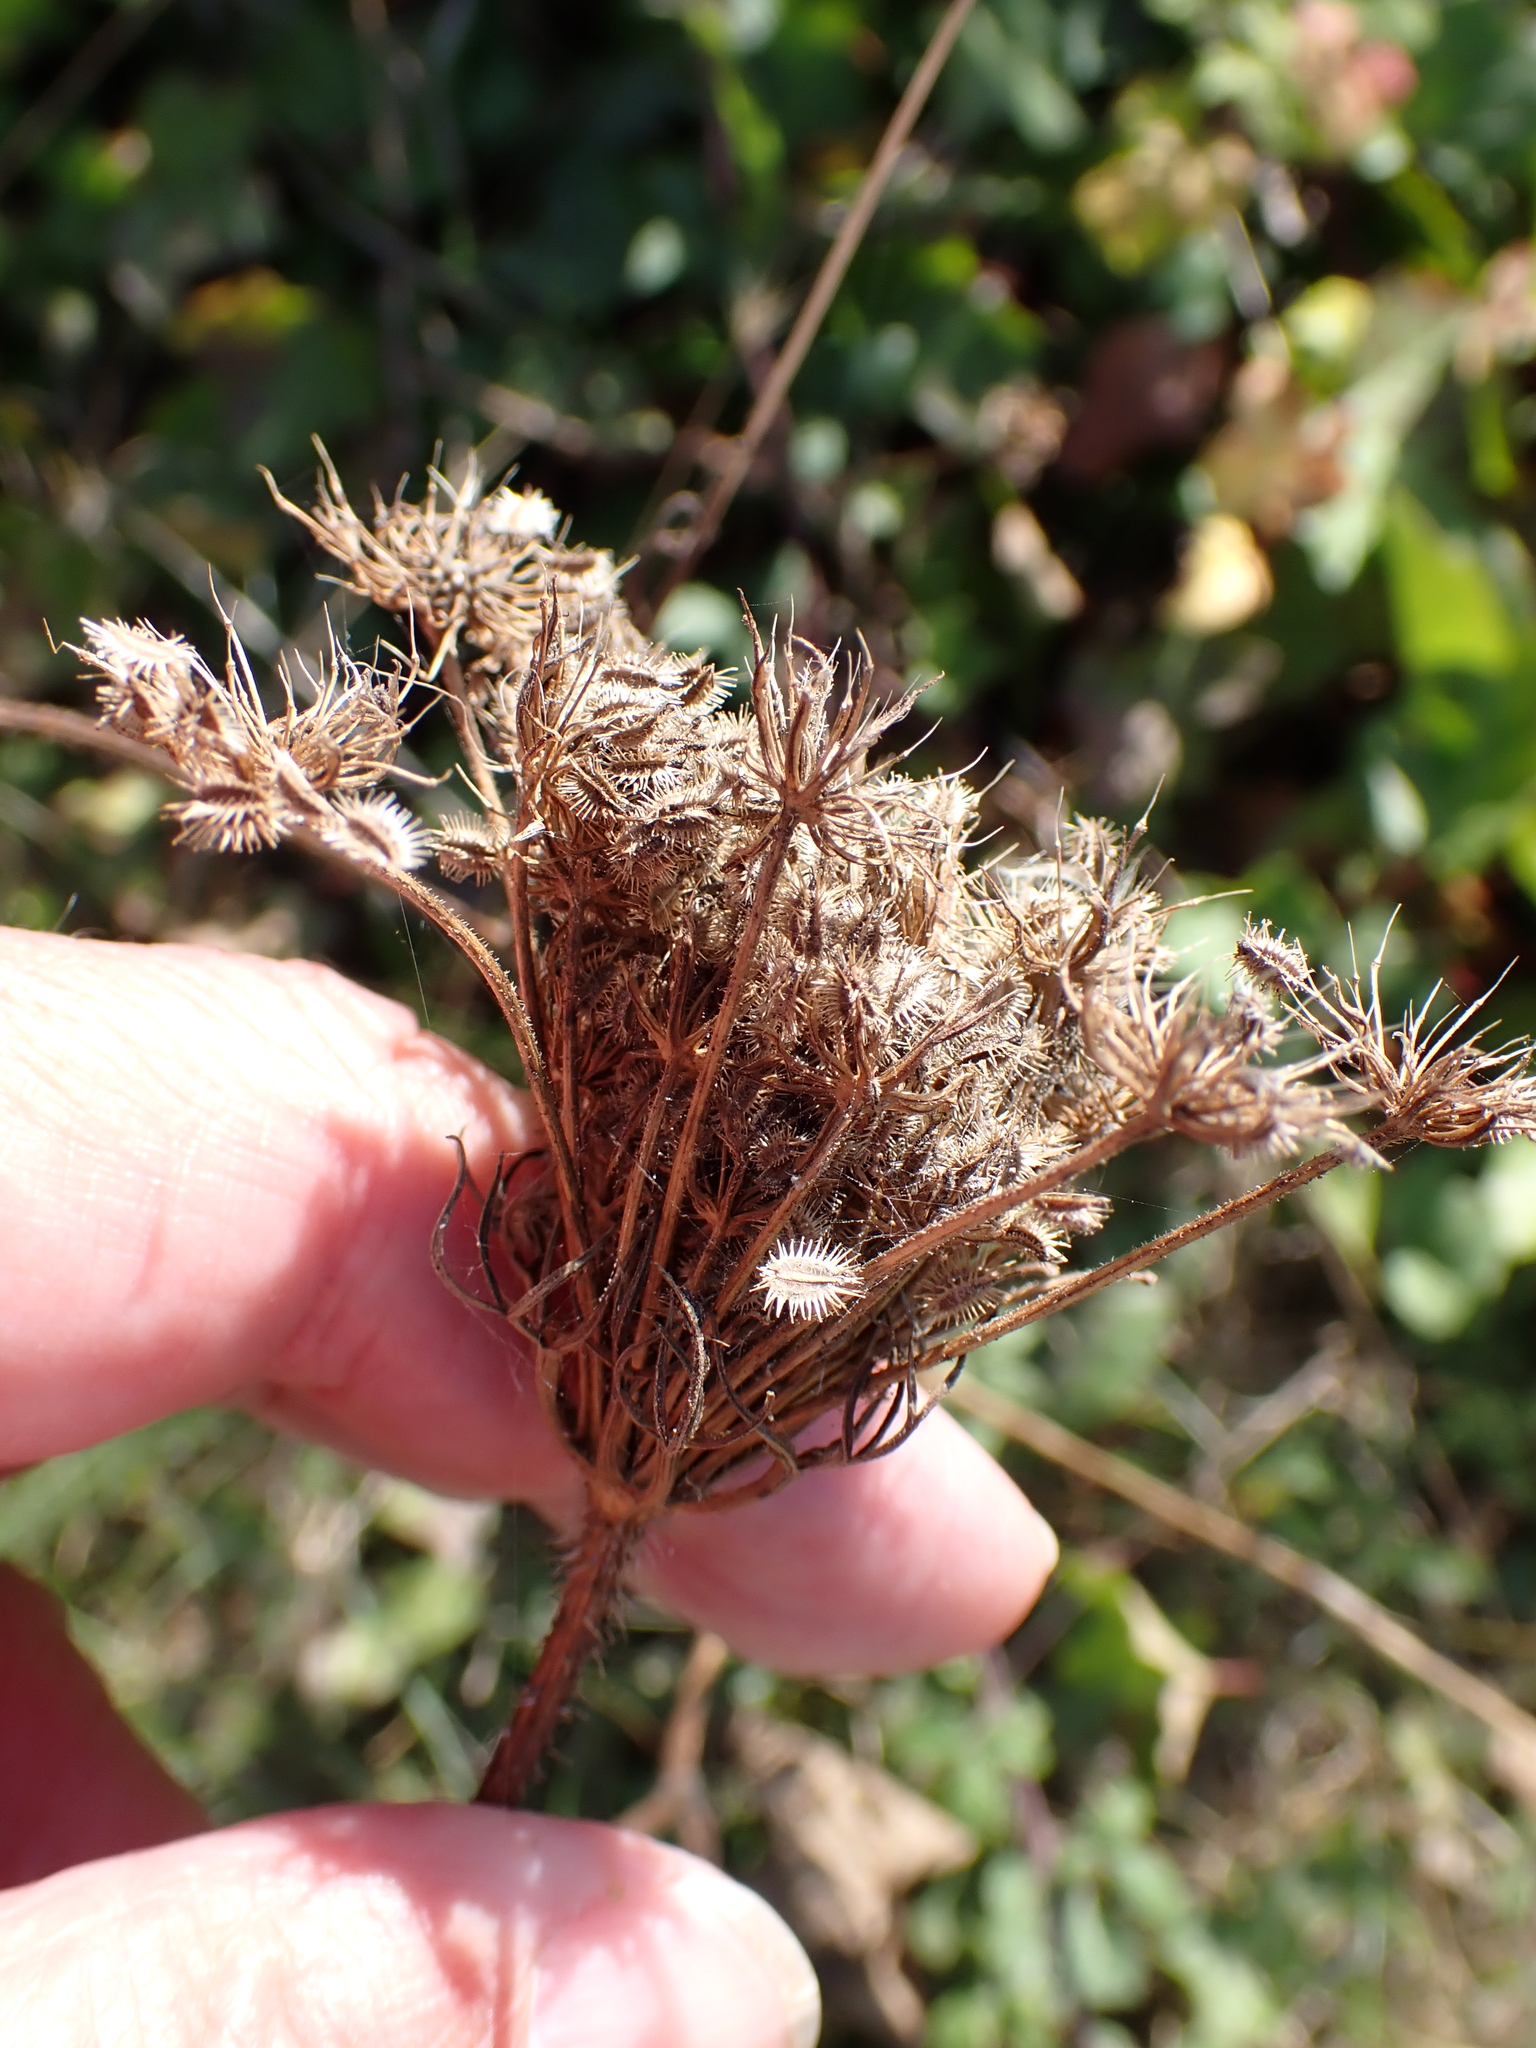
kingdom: Plantae
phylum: Tracheophyta
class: Magnoliopsida
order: Apiales
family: Apiaceae
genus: Daucus
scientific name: Daucus carota
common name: Wild carrot
